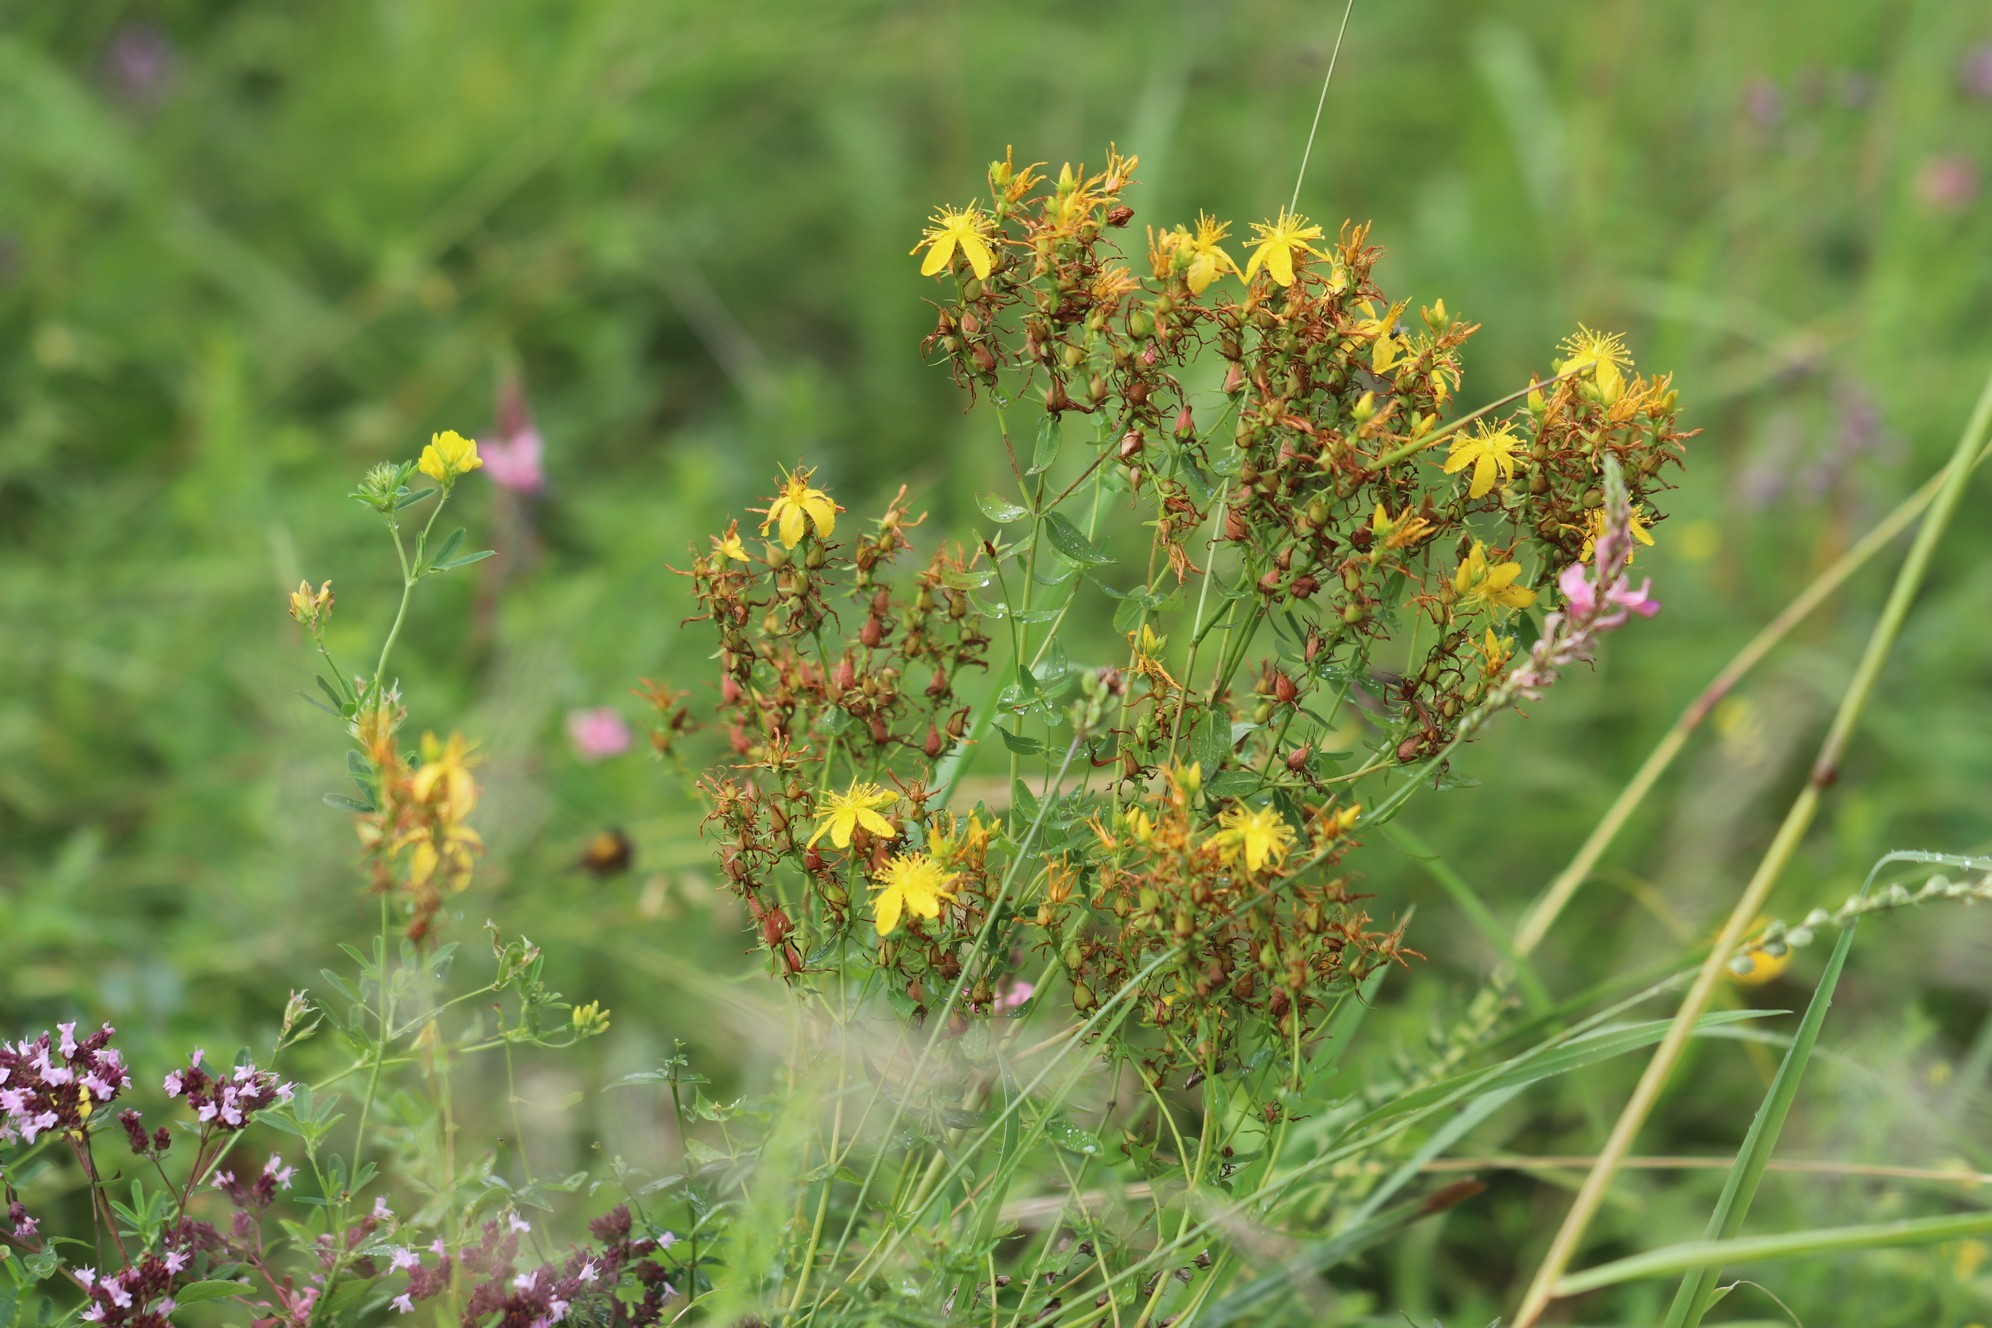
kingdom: Plantae
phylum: Tracheophyta
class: Magnoliopsida
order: Malpighiales
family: Hypericaceae
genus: Hypericum
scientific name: Hypericum perforatum
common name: Common st. johnswort
